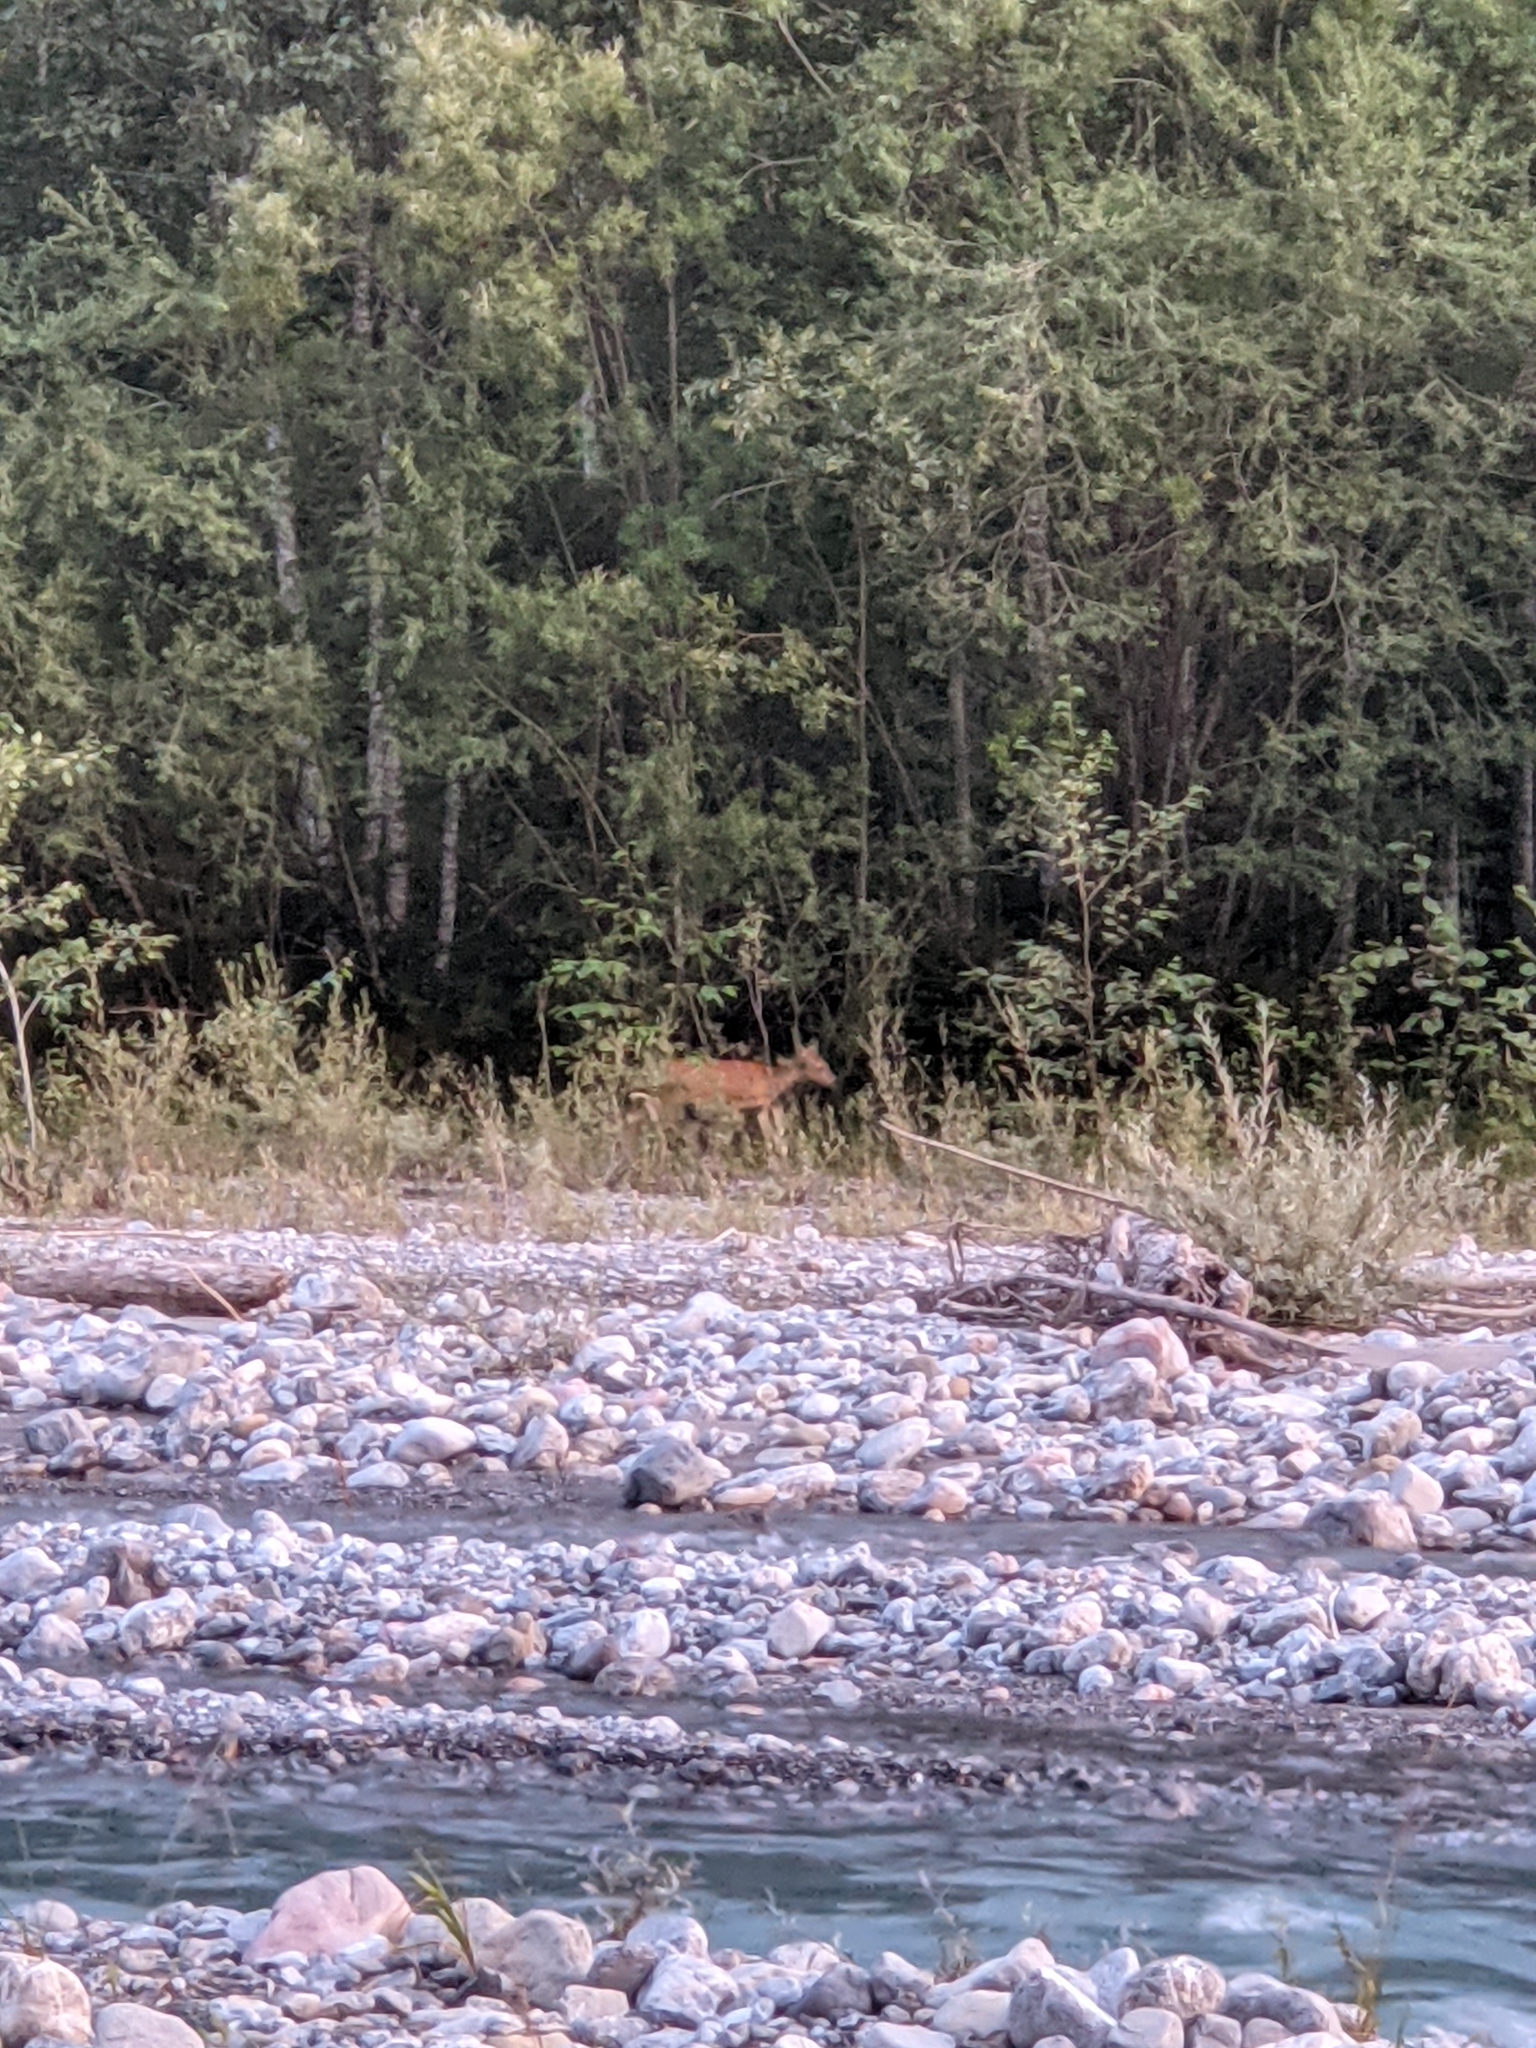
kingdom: Animalia
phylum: Chordata
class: Mammalia
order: Artiodactyla
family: Cervidae
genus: Capreolus
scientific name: Capreolus capreolus
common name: Western roe deer
